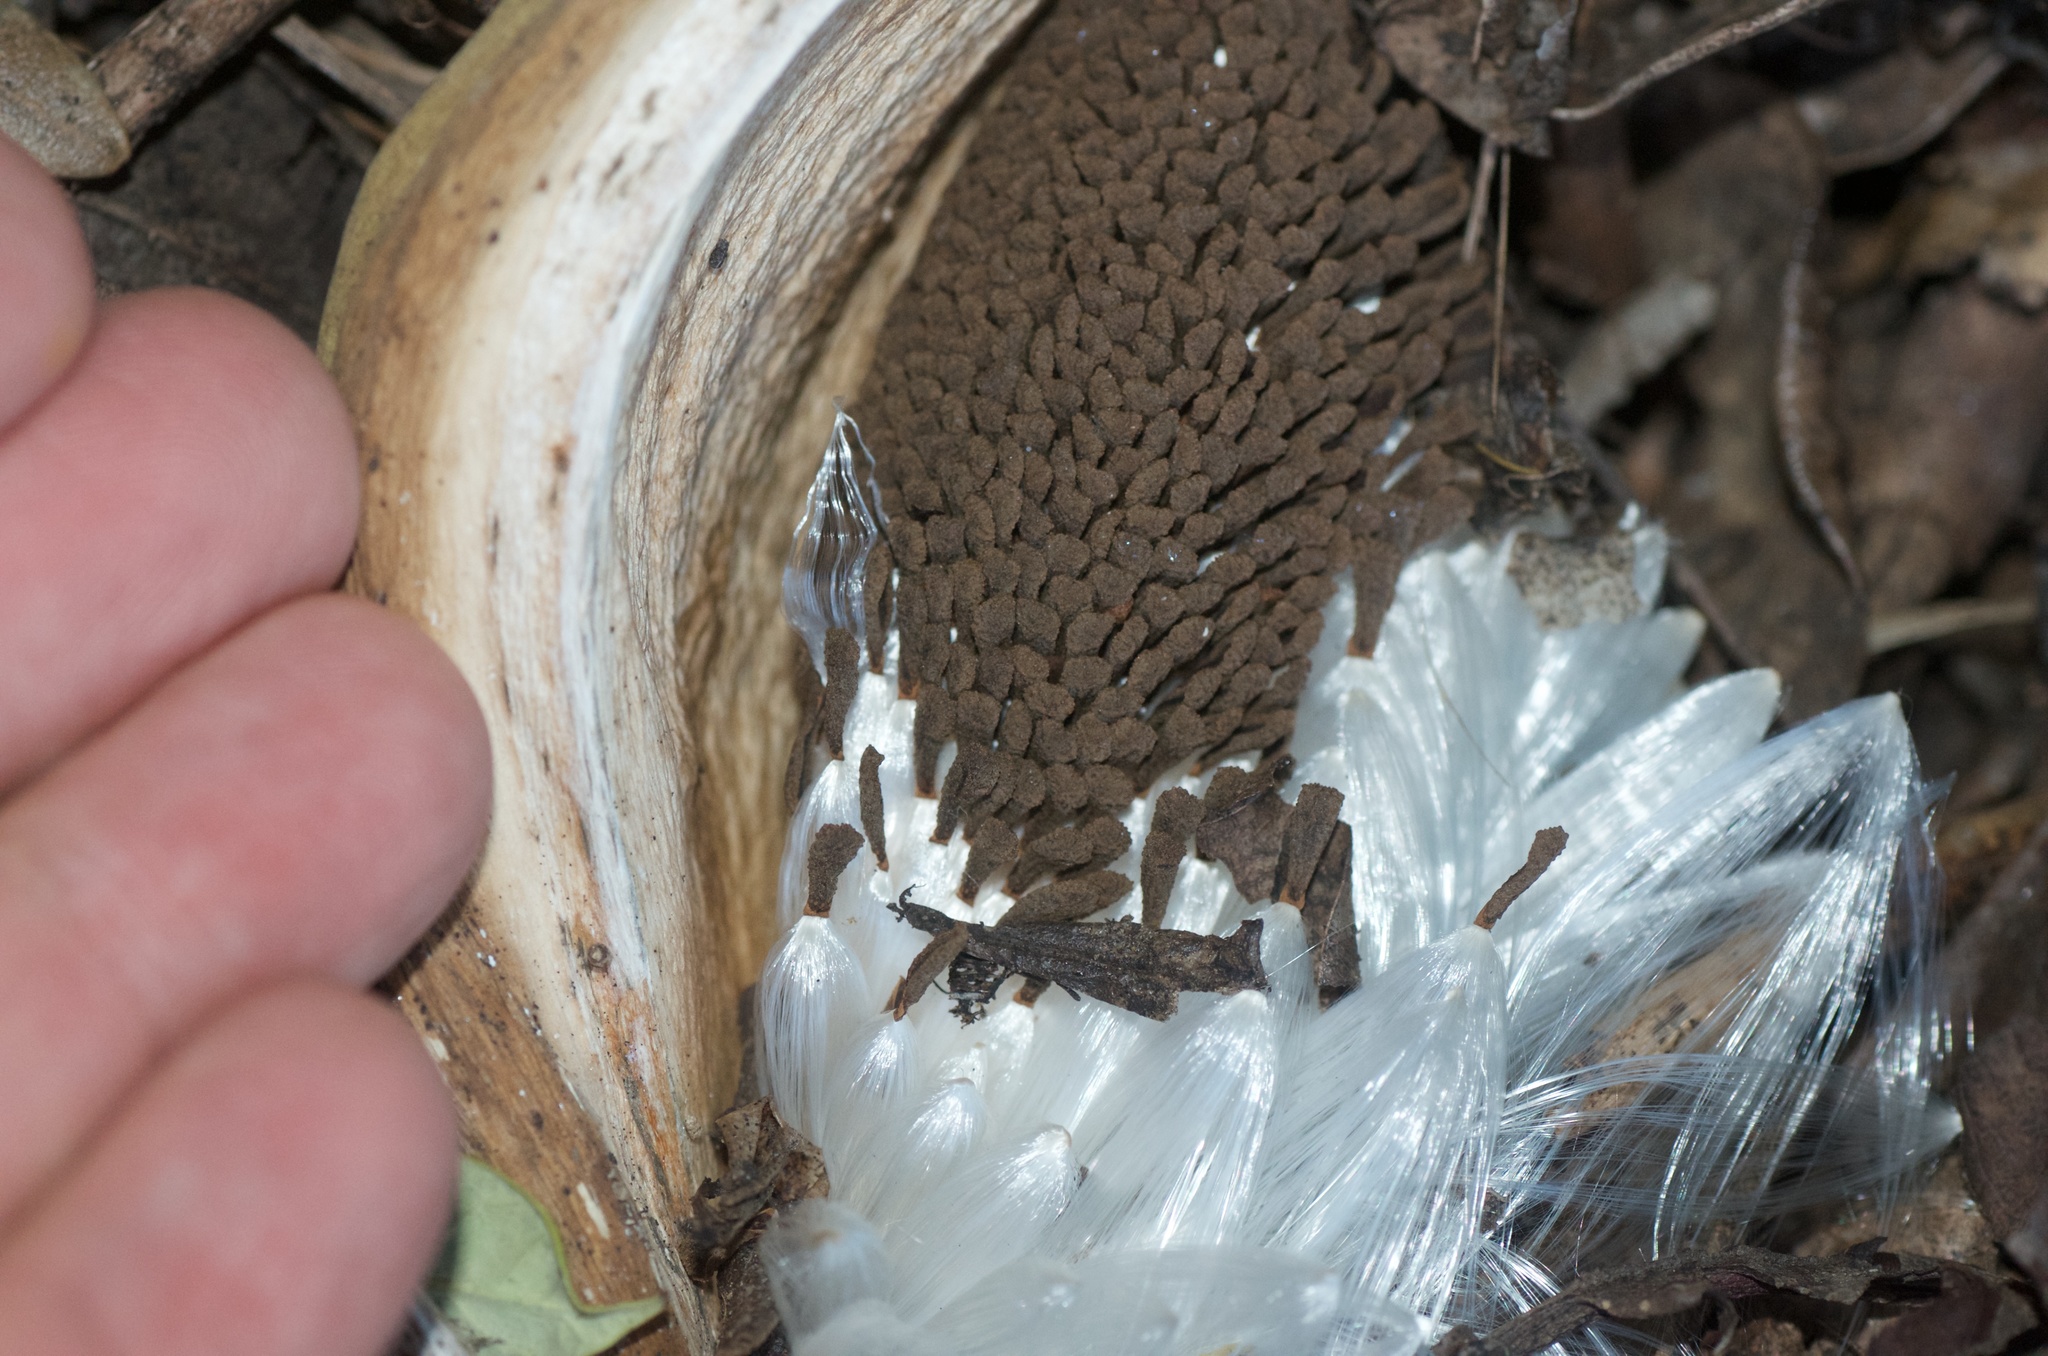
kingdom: Plantae
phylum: Tracheophyta
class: Magnoliopsida
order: Gentianales
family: Apocynaceae
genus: Araujia
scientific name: Araujia sericifera
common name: White bladderflower
